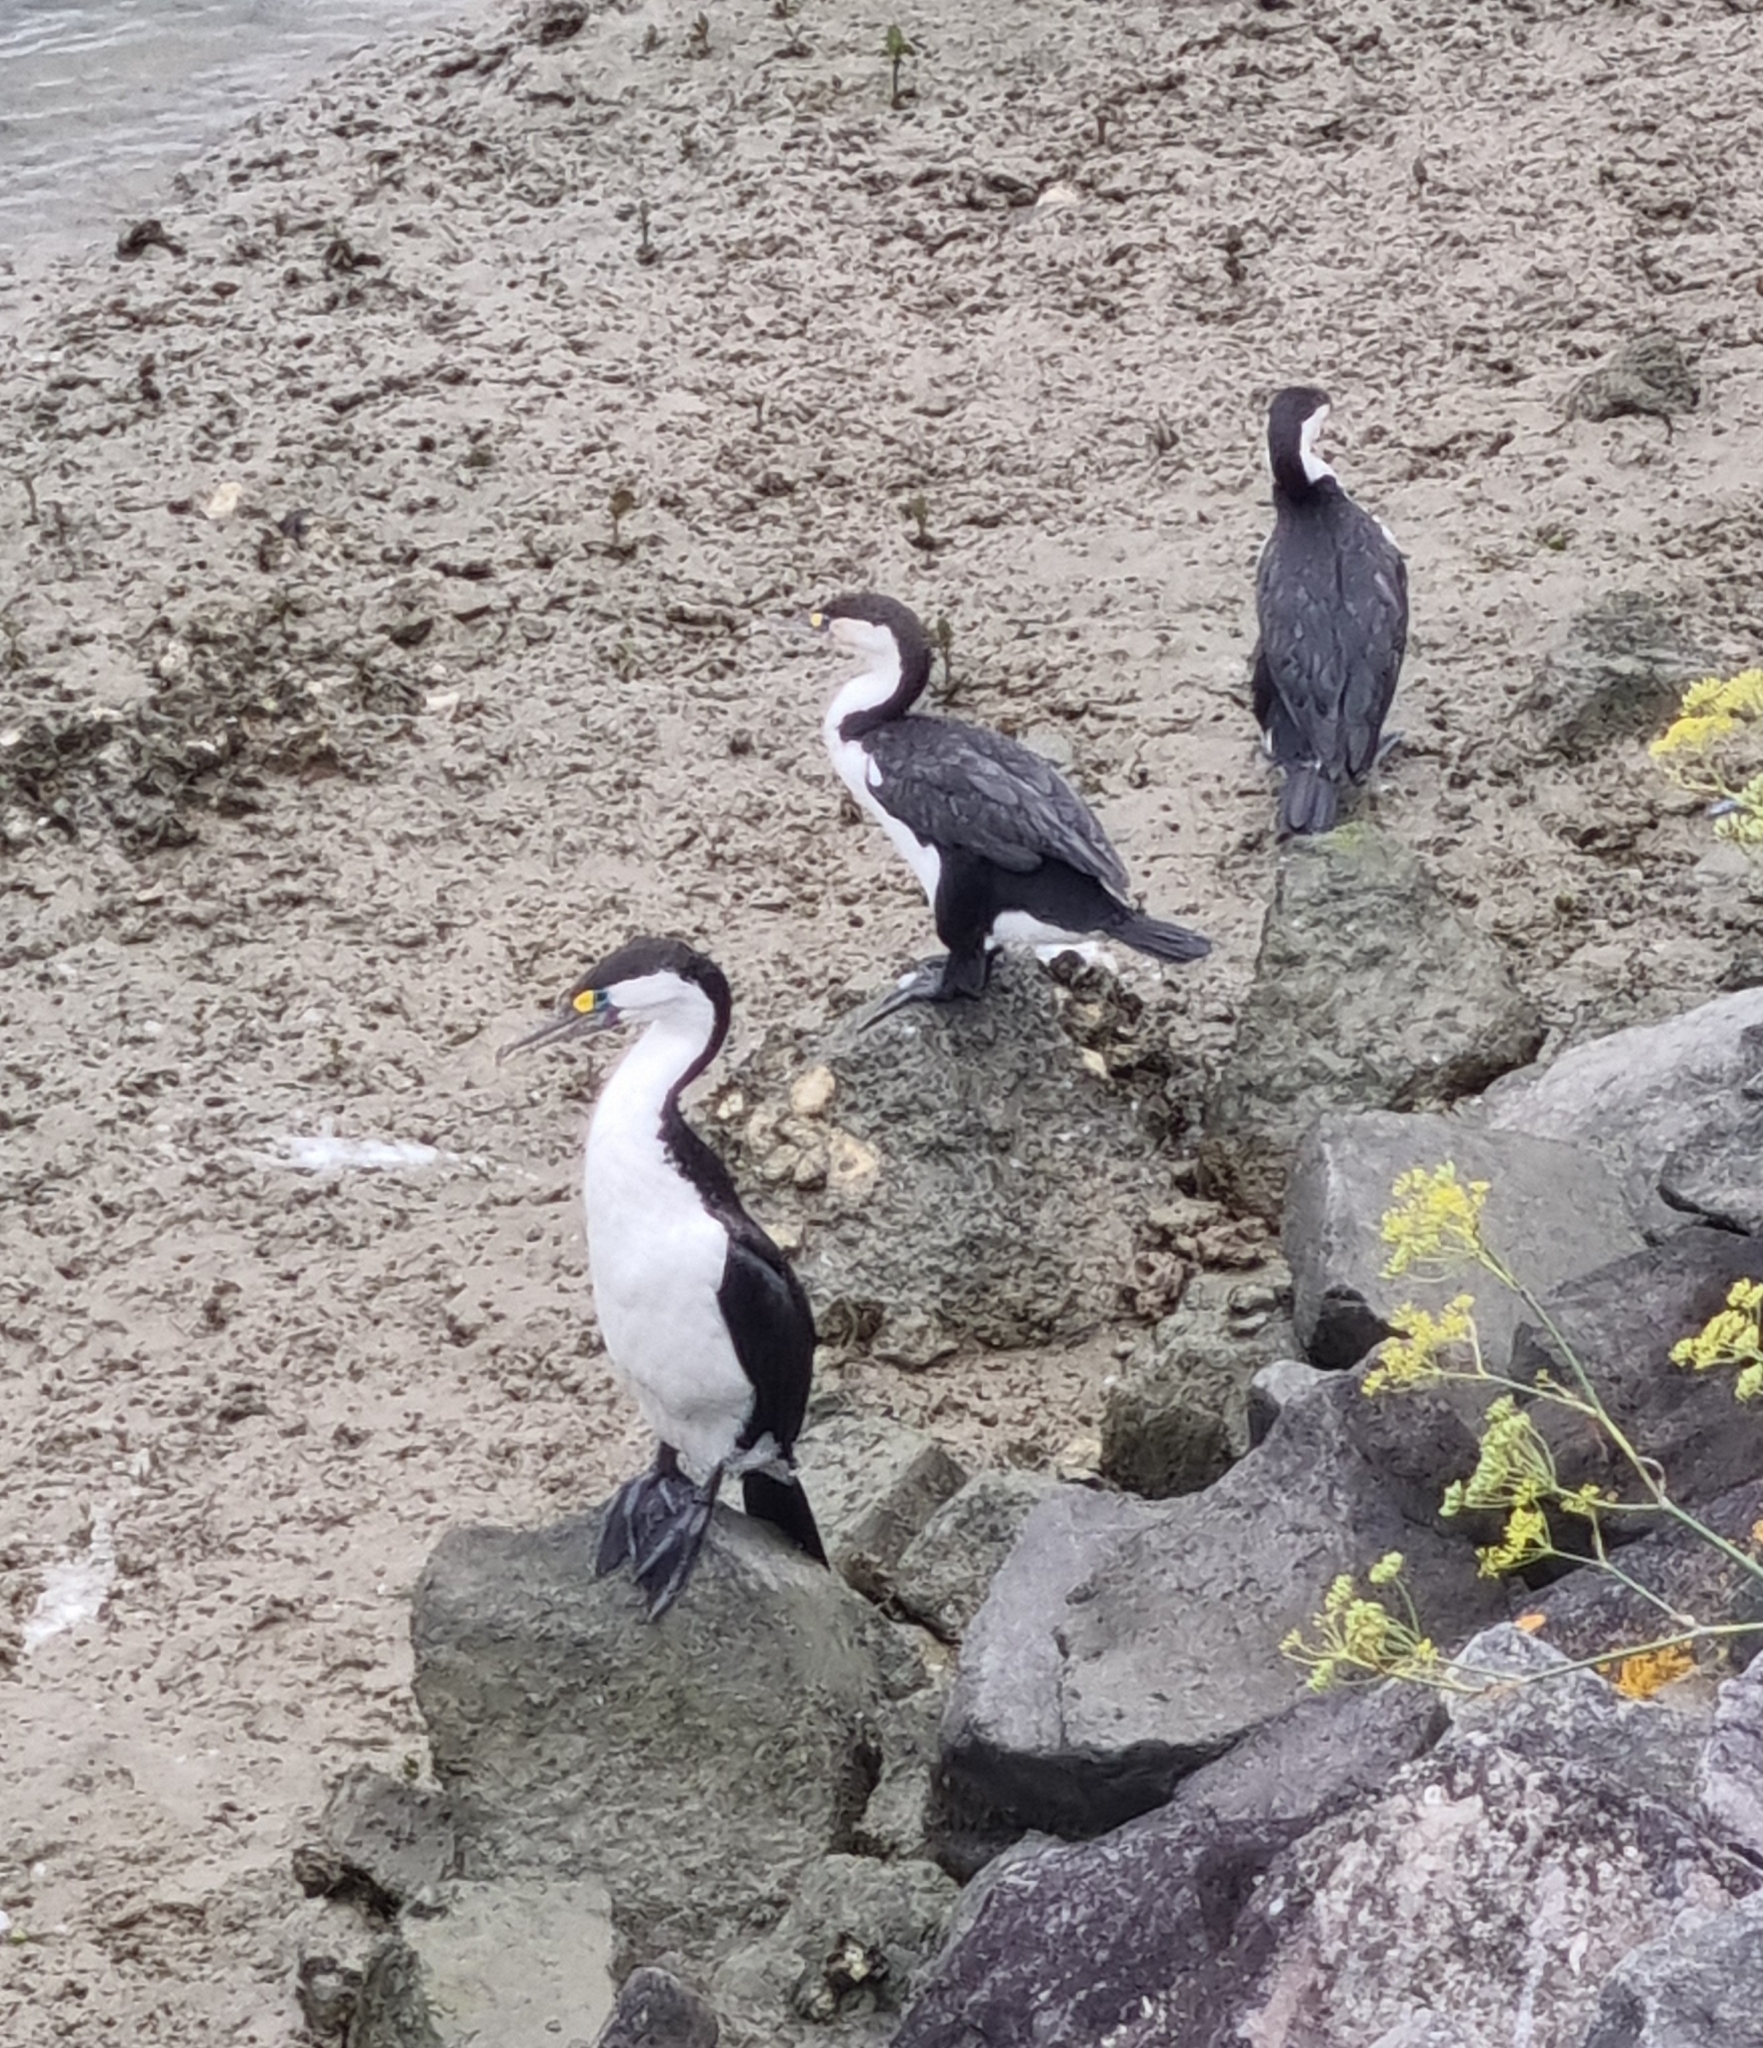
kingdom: Animalia
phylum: Chordata
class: Aves
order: Suliformes
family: Phalacrocoracidae
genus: Phalacrocorax
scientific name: Phalacrocorax varius
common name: Pied cormorant
